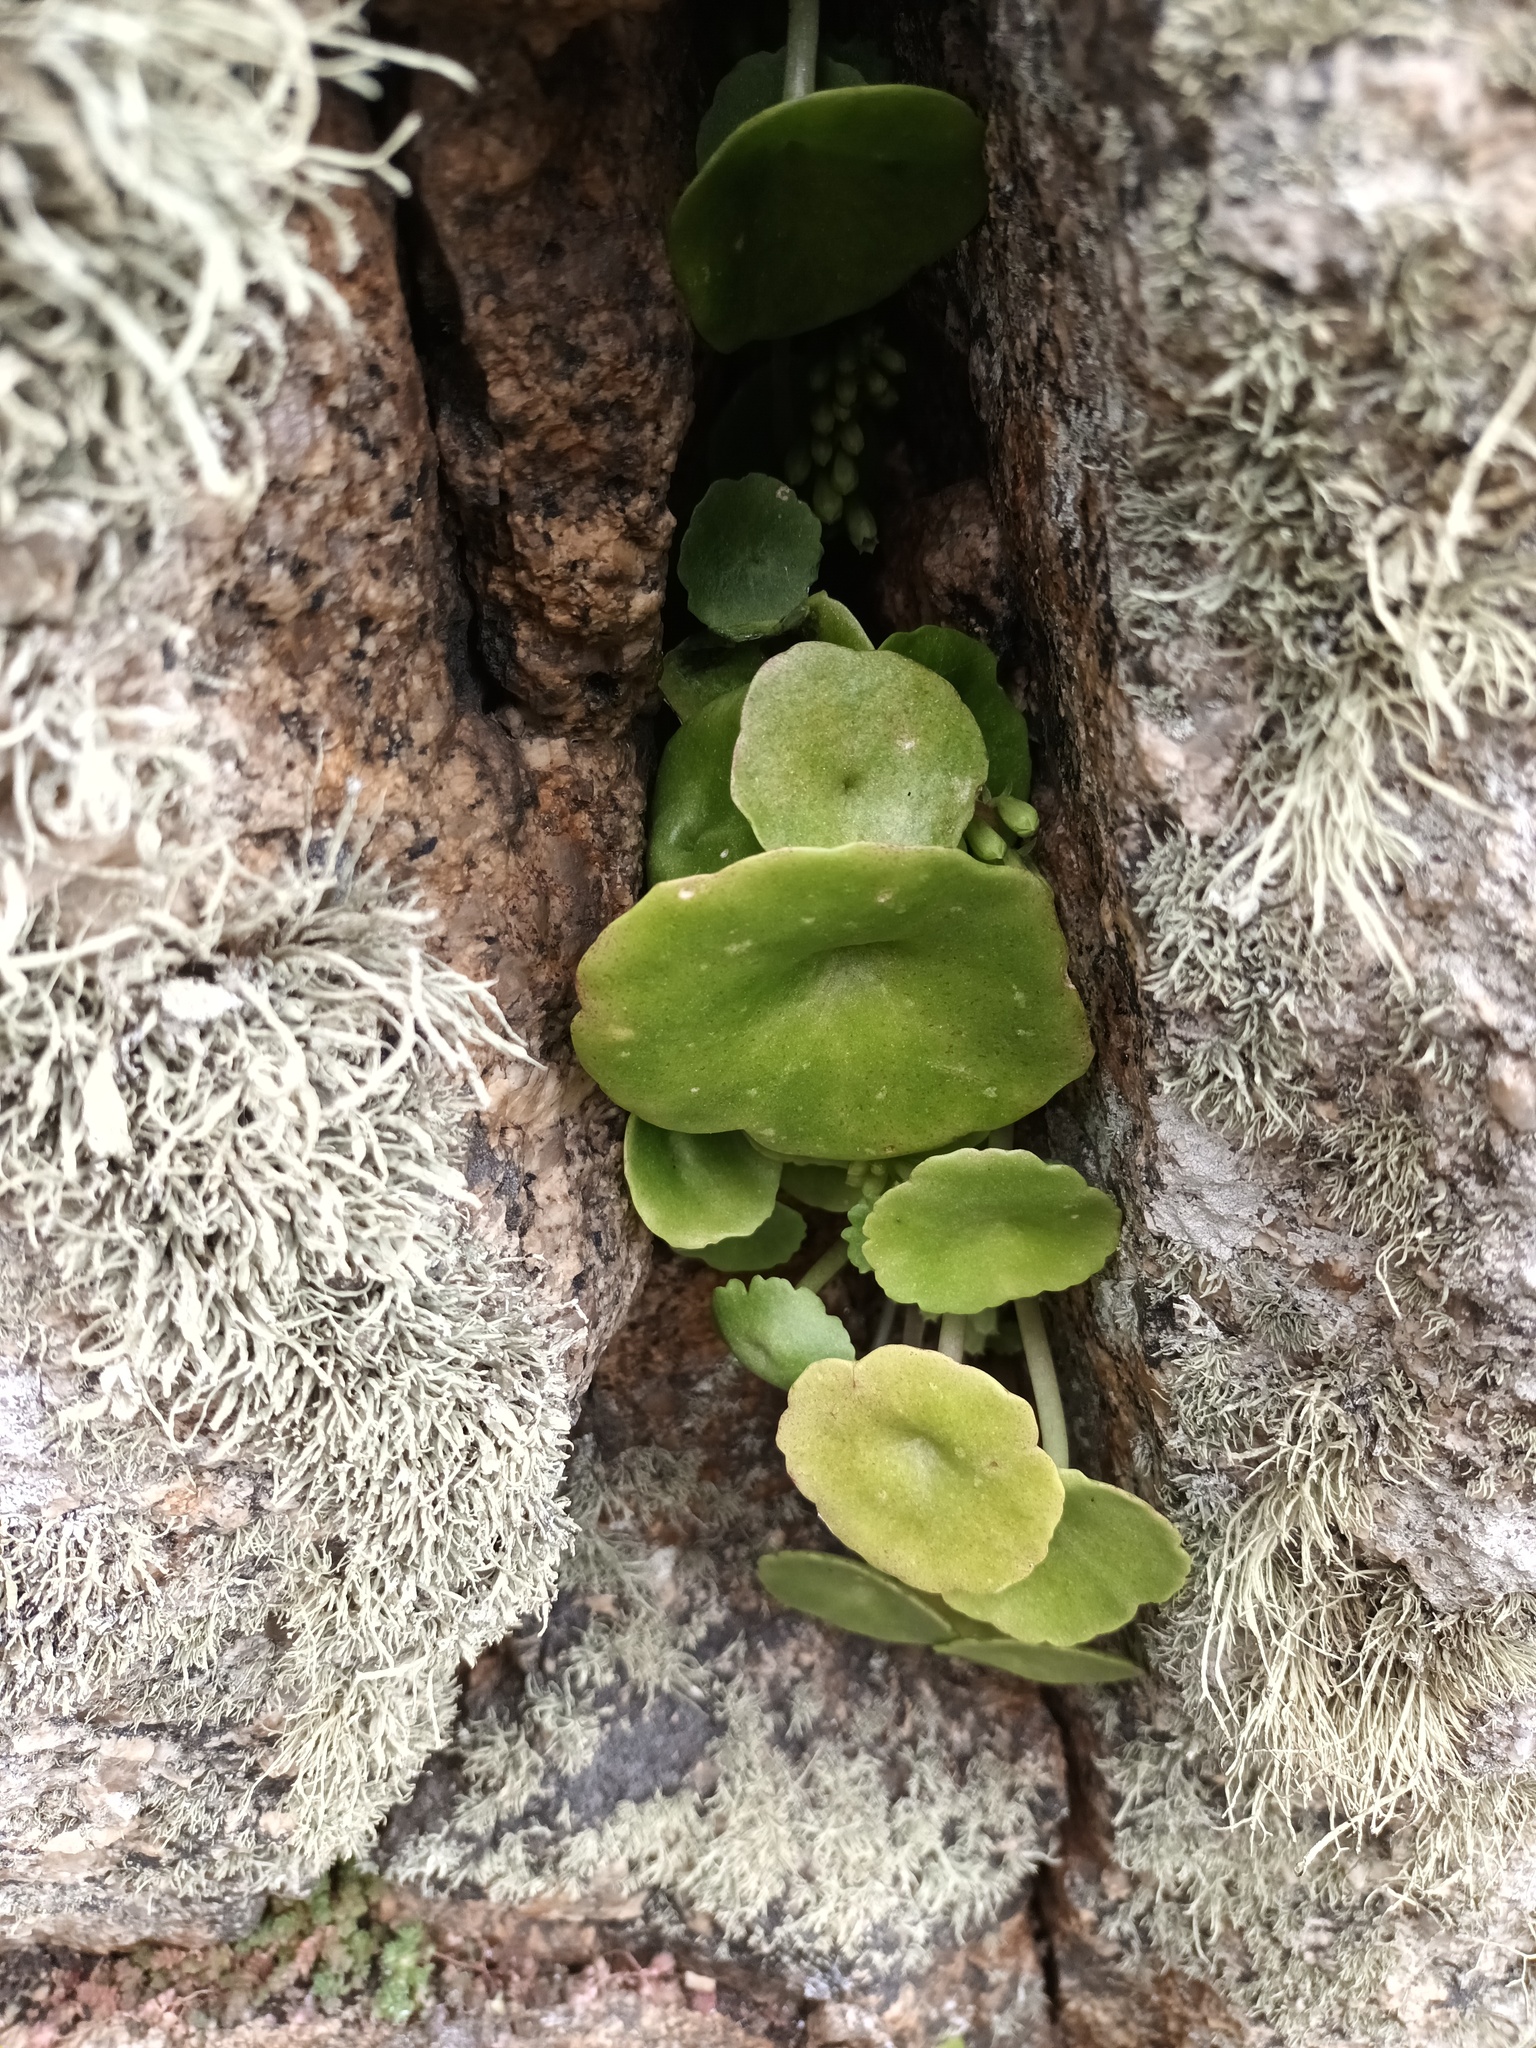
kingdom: Plantae
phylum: Tracheophyta
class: Magnoliopsida
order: Saxifragales
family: Crassulaceae
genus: Umbilicus
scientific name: Umbilicus rupestris
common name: Navelwort
